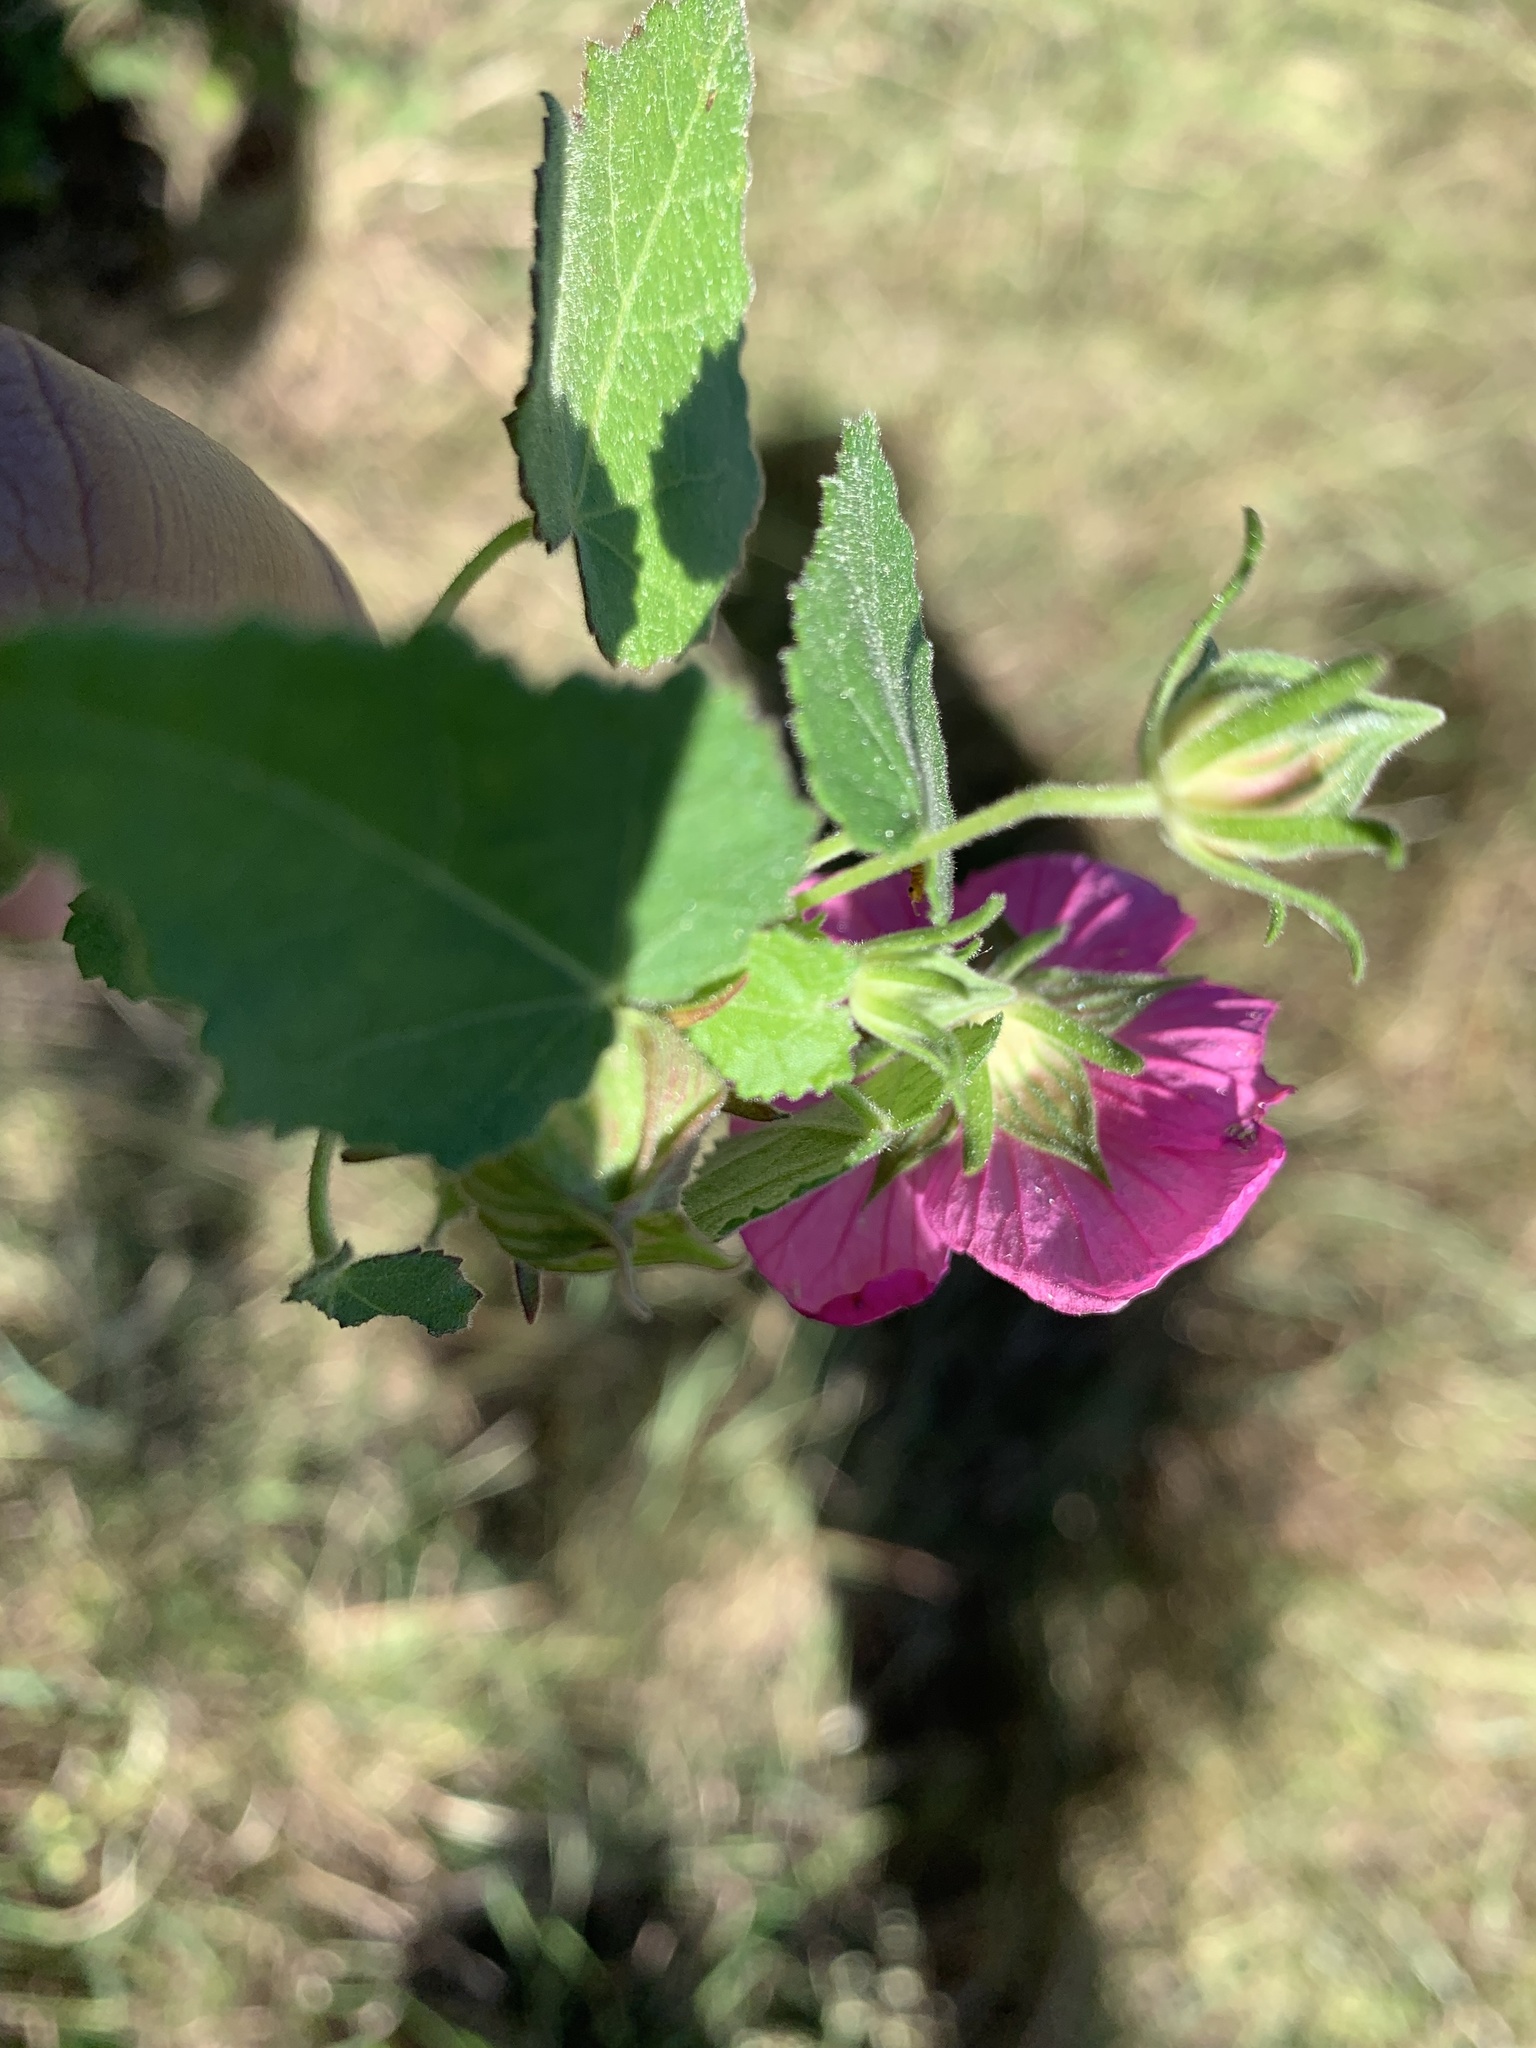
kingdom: Plantae
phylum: Tracheophyta
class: Magnoliopsida
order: Malvales
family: Malvaceae
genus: Pavonia
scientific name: Pavonia lasiopetala
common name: Texas swamp-mallow
